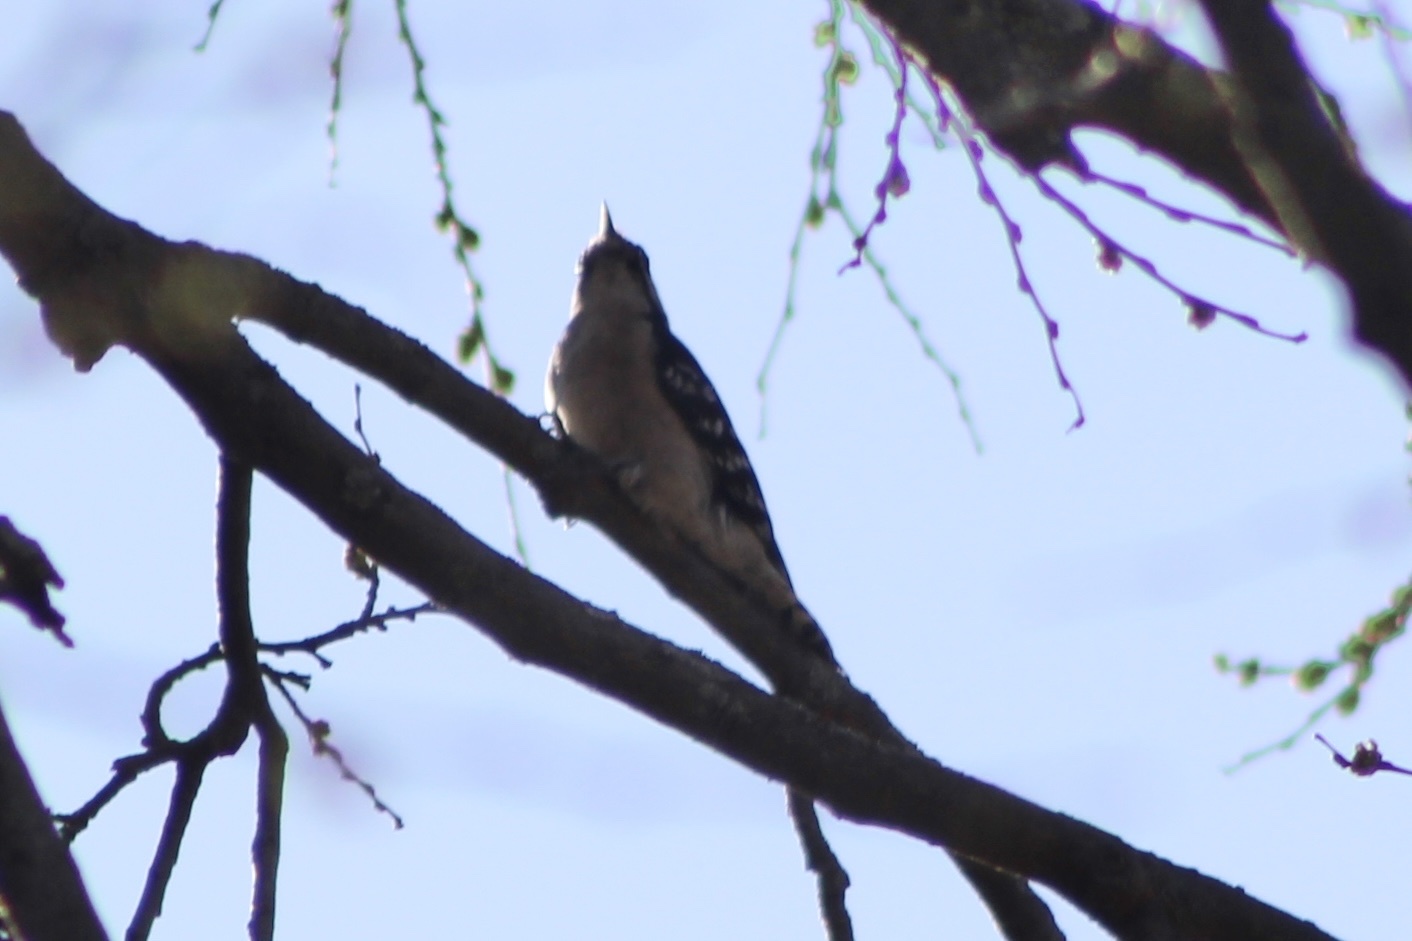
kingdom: Animalia
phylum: Chordata
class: Aves
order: Piciformes
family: Picidae
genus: Dryobates
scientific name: Dryobates pubescens
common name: Downy woodpecker
